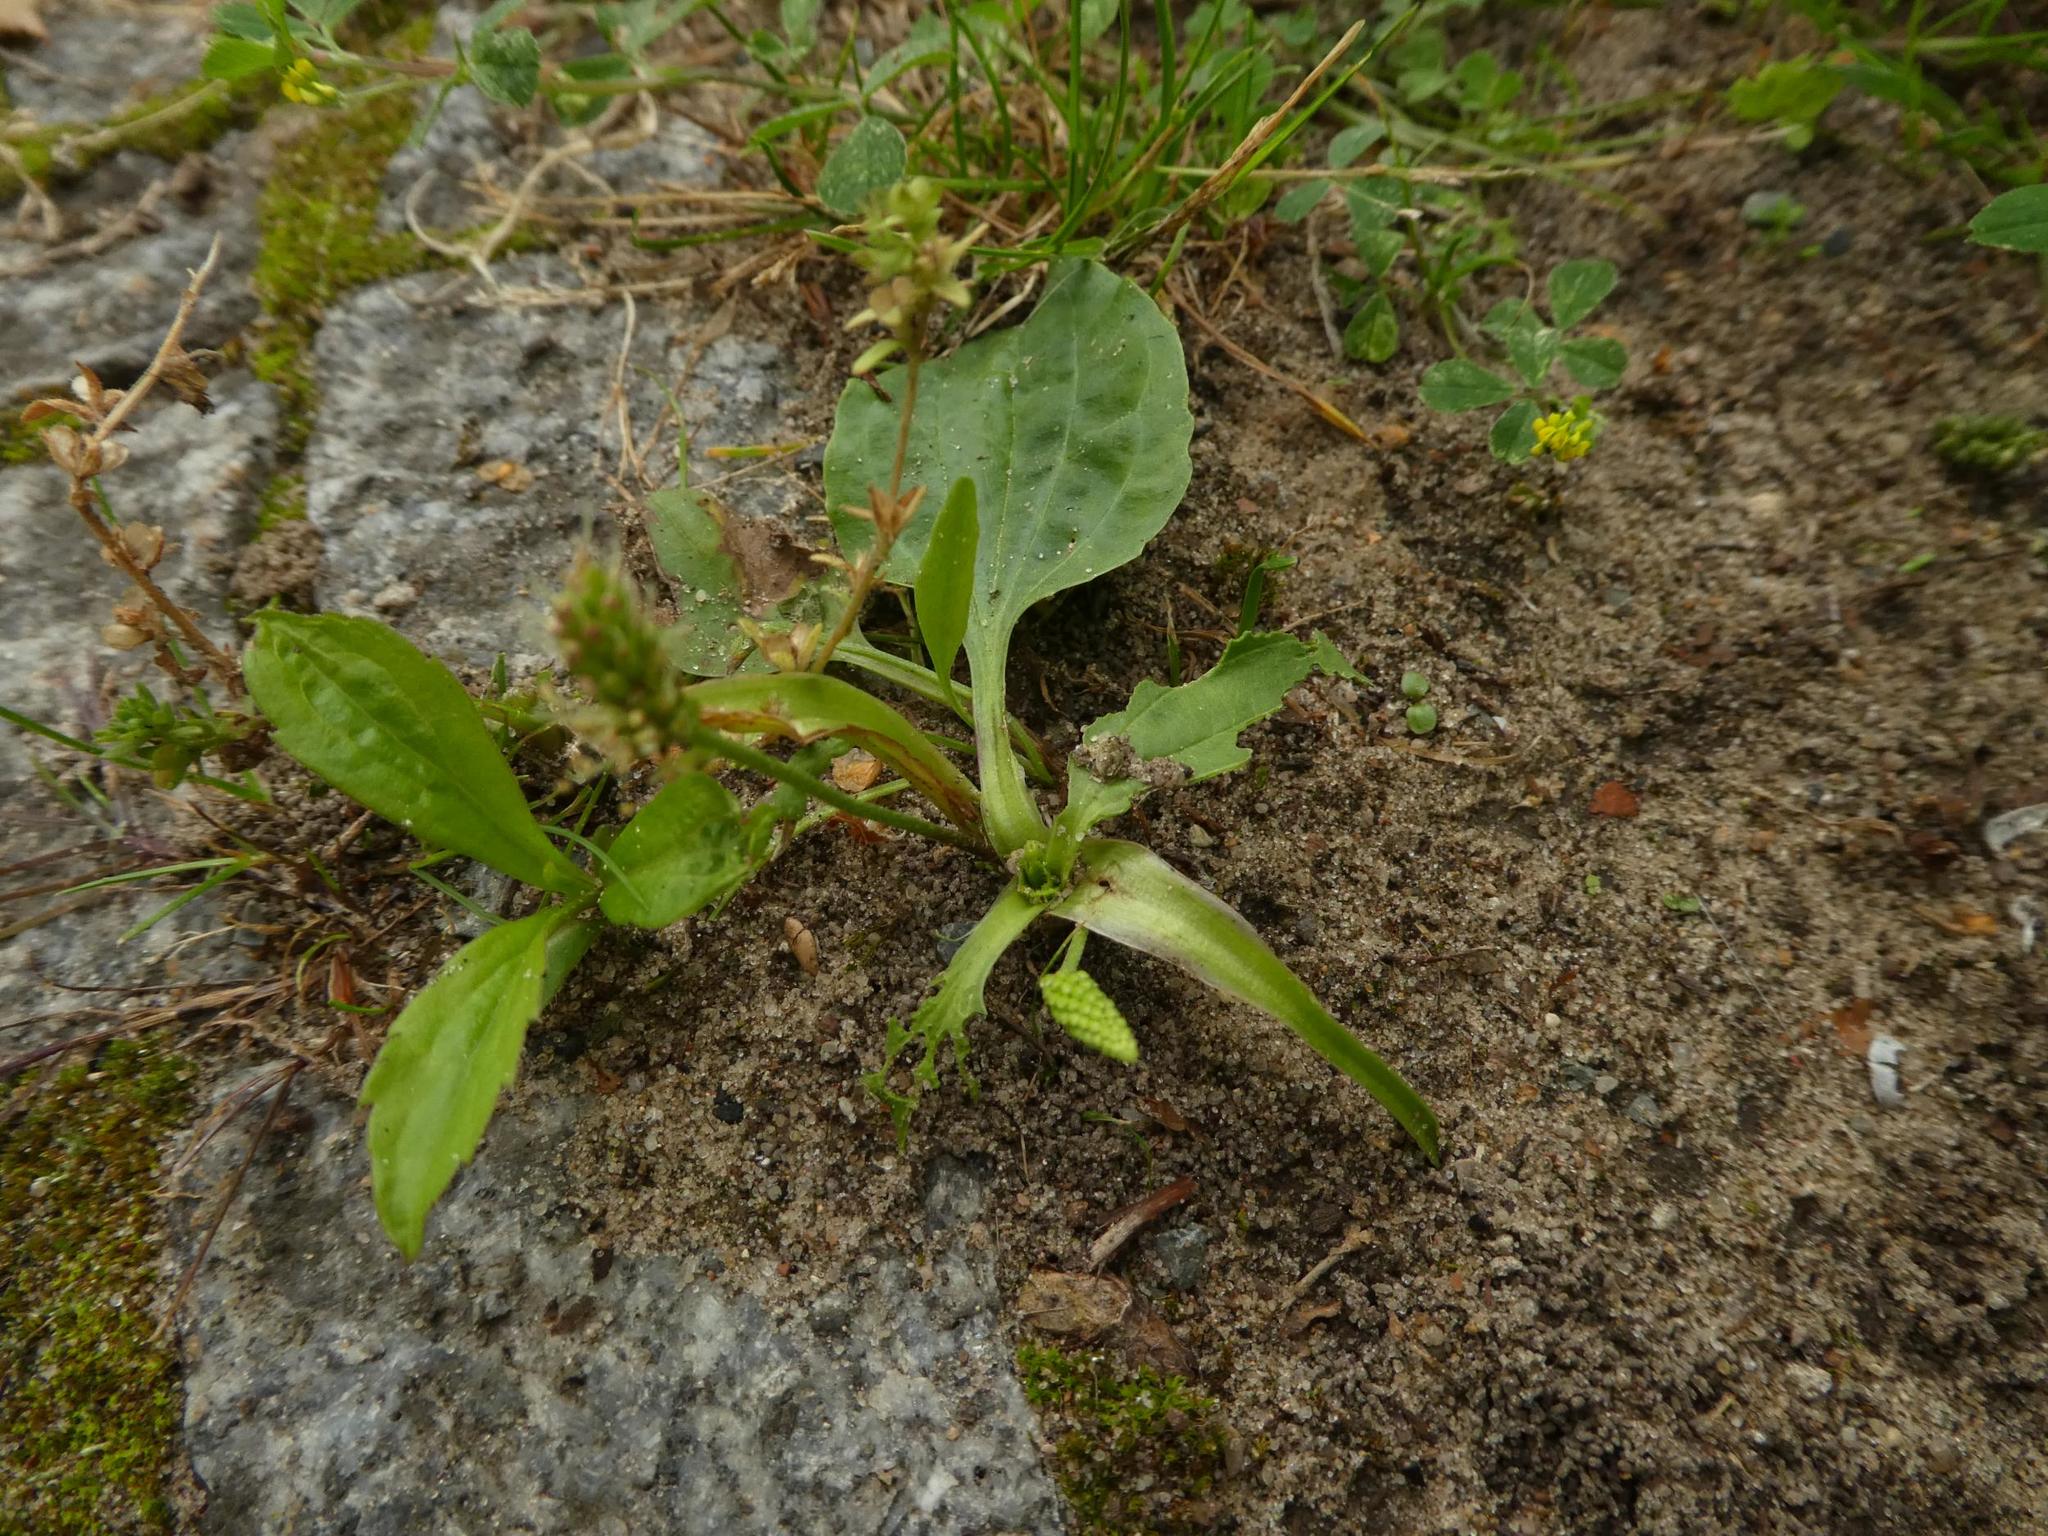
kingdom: Plantae
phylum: Tracheophyta
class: Magnoliopsida
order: Lamiales
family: Plantaginaceae
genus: Plantago
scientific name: Plantago major
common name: Common plantain
